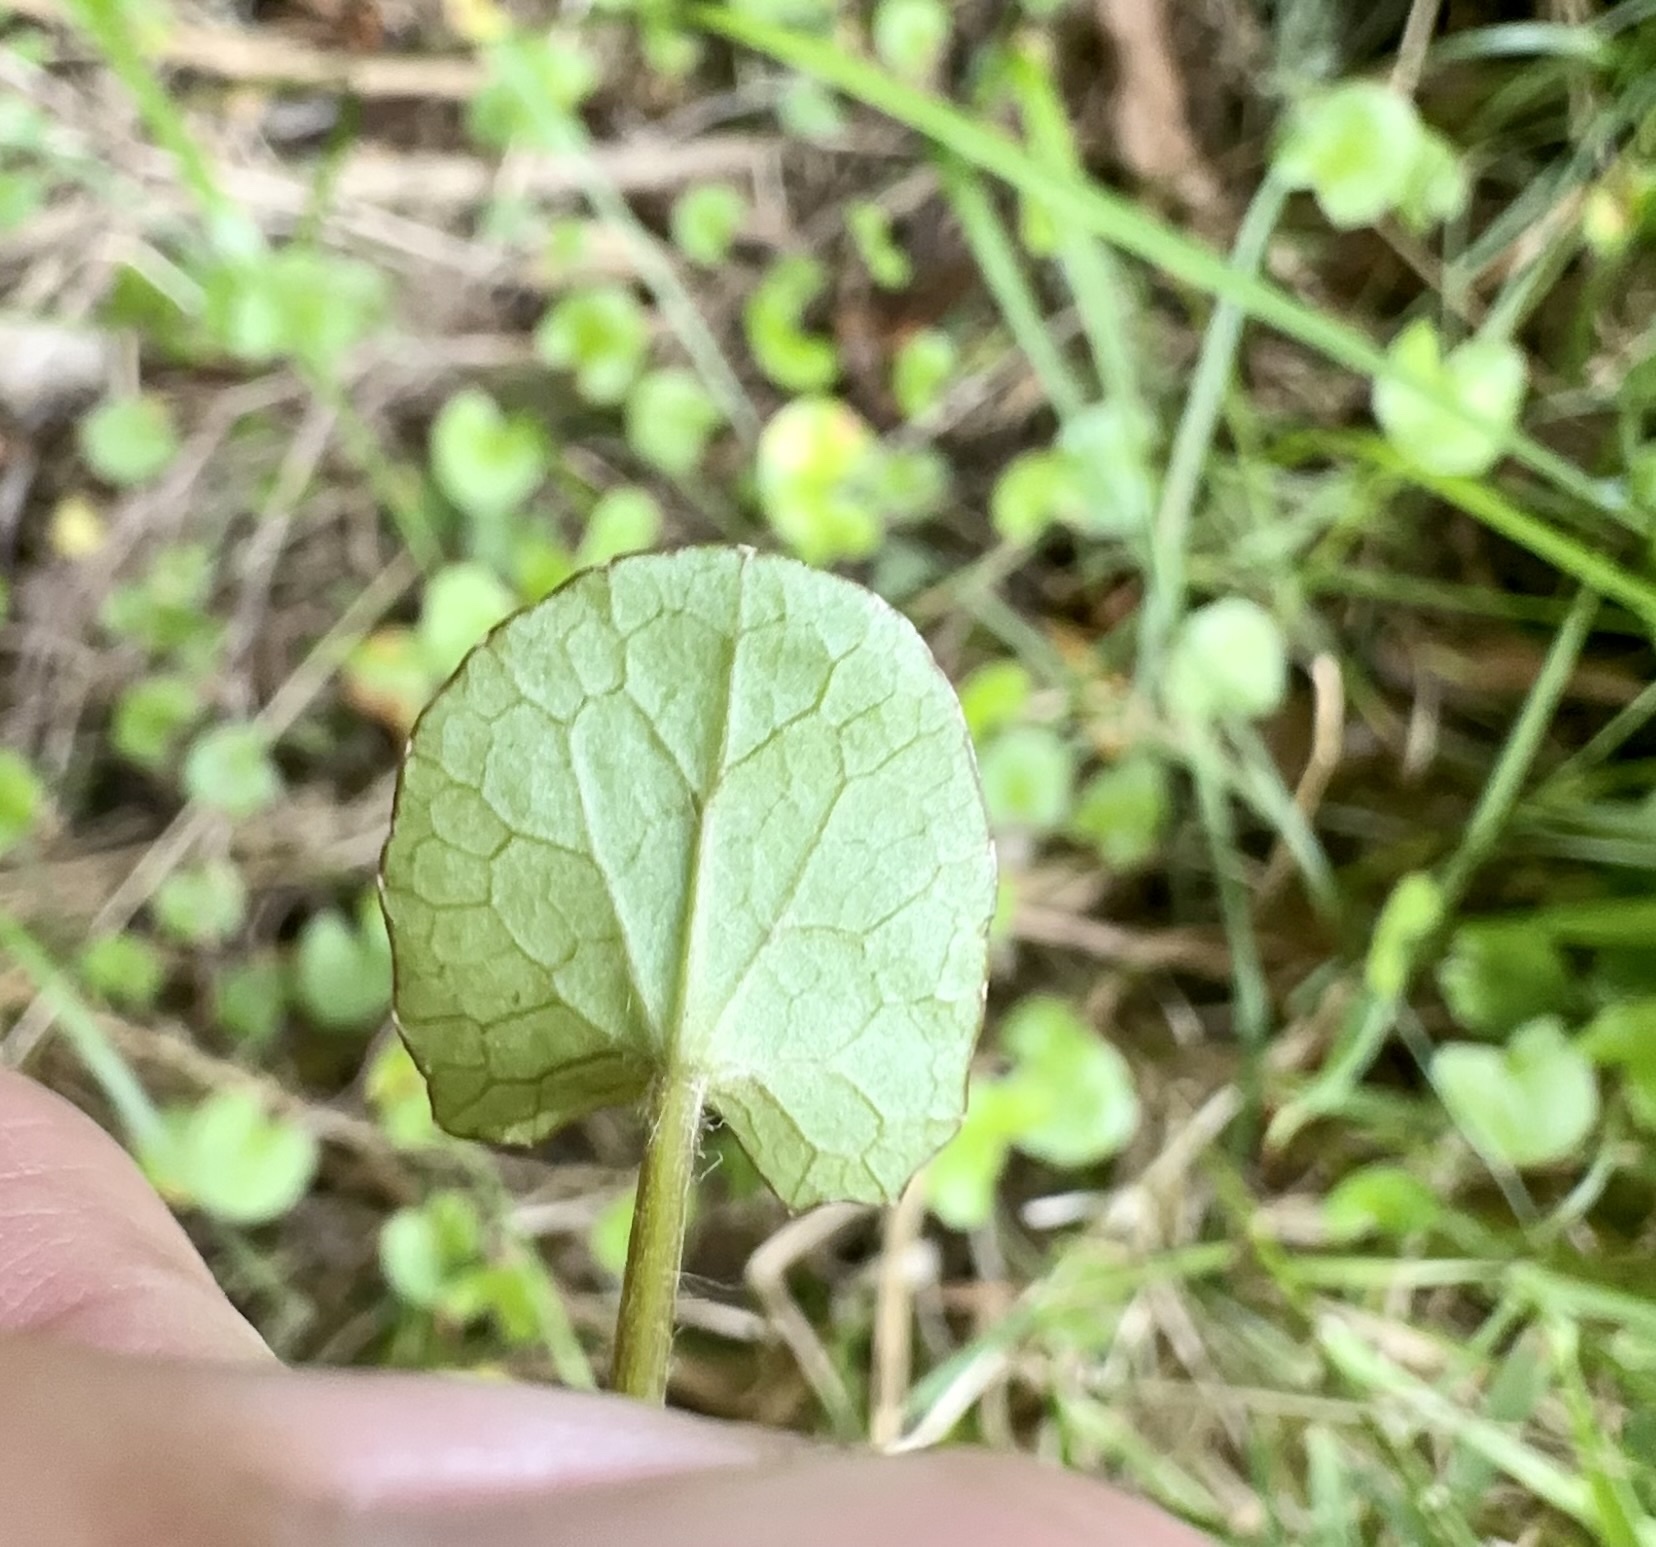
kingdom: Plantae
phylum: Tracheophyta
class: Magnoliopsida
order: Apiales
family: Apiaceae
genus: Centella
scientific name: Centella uniflora
